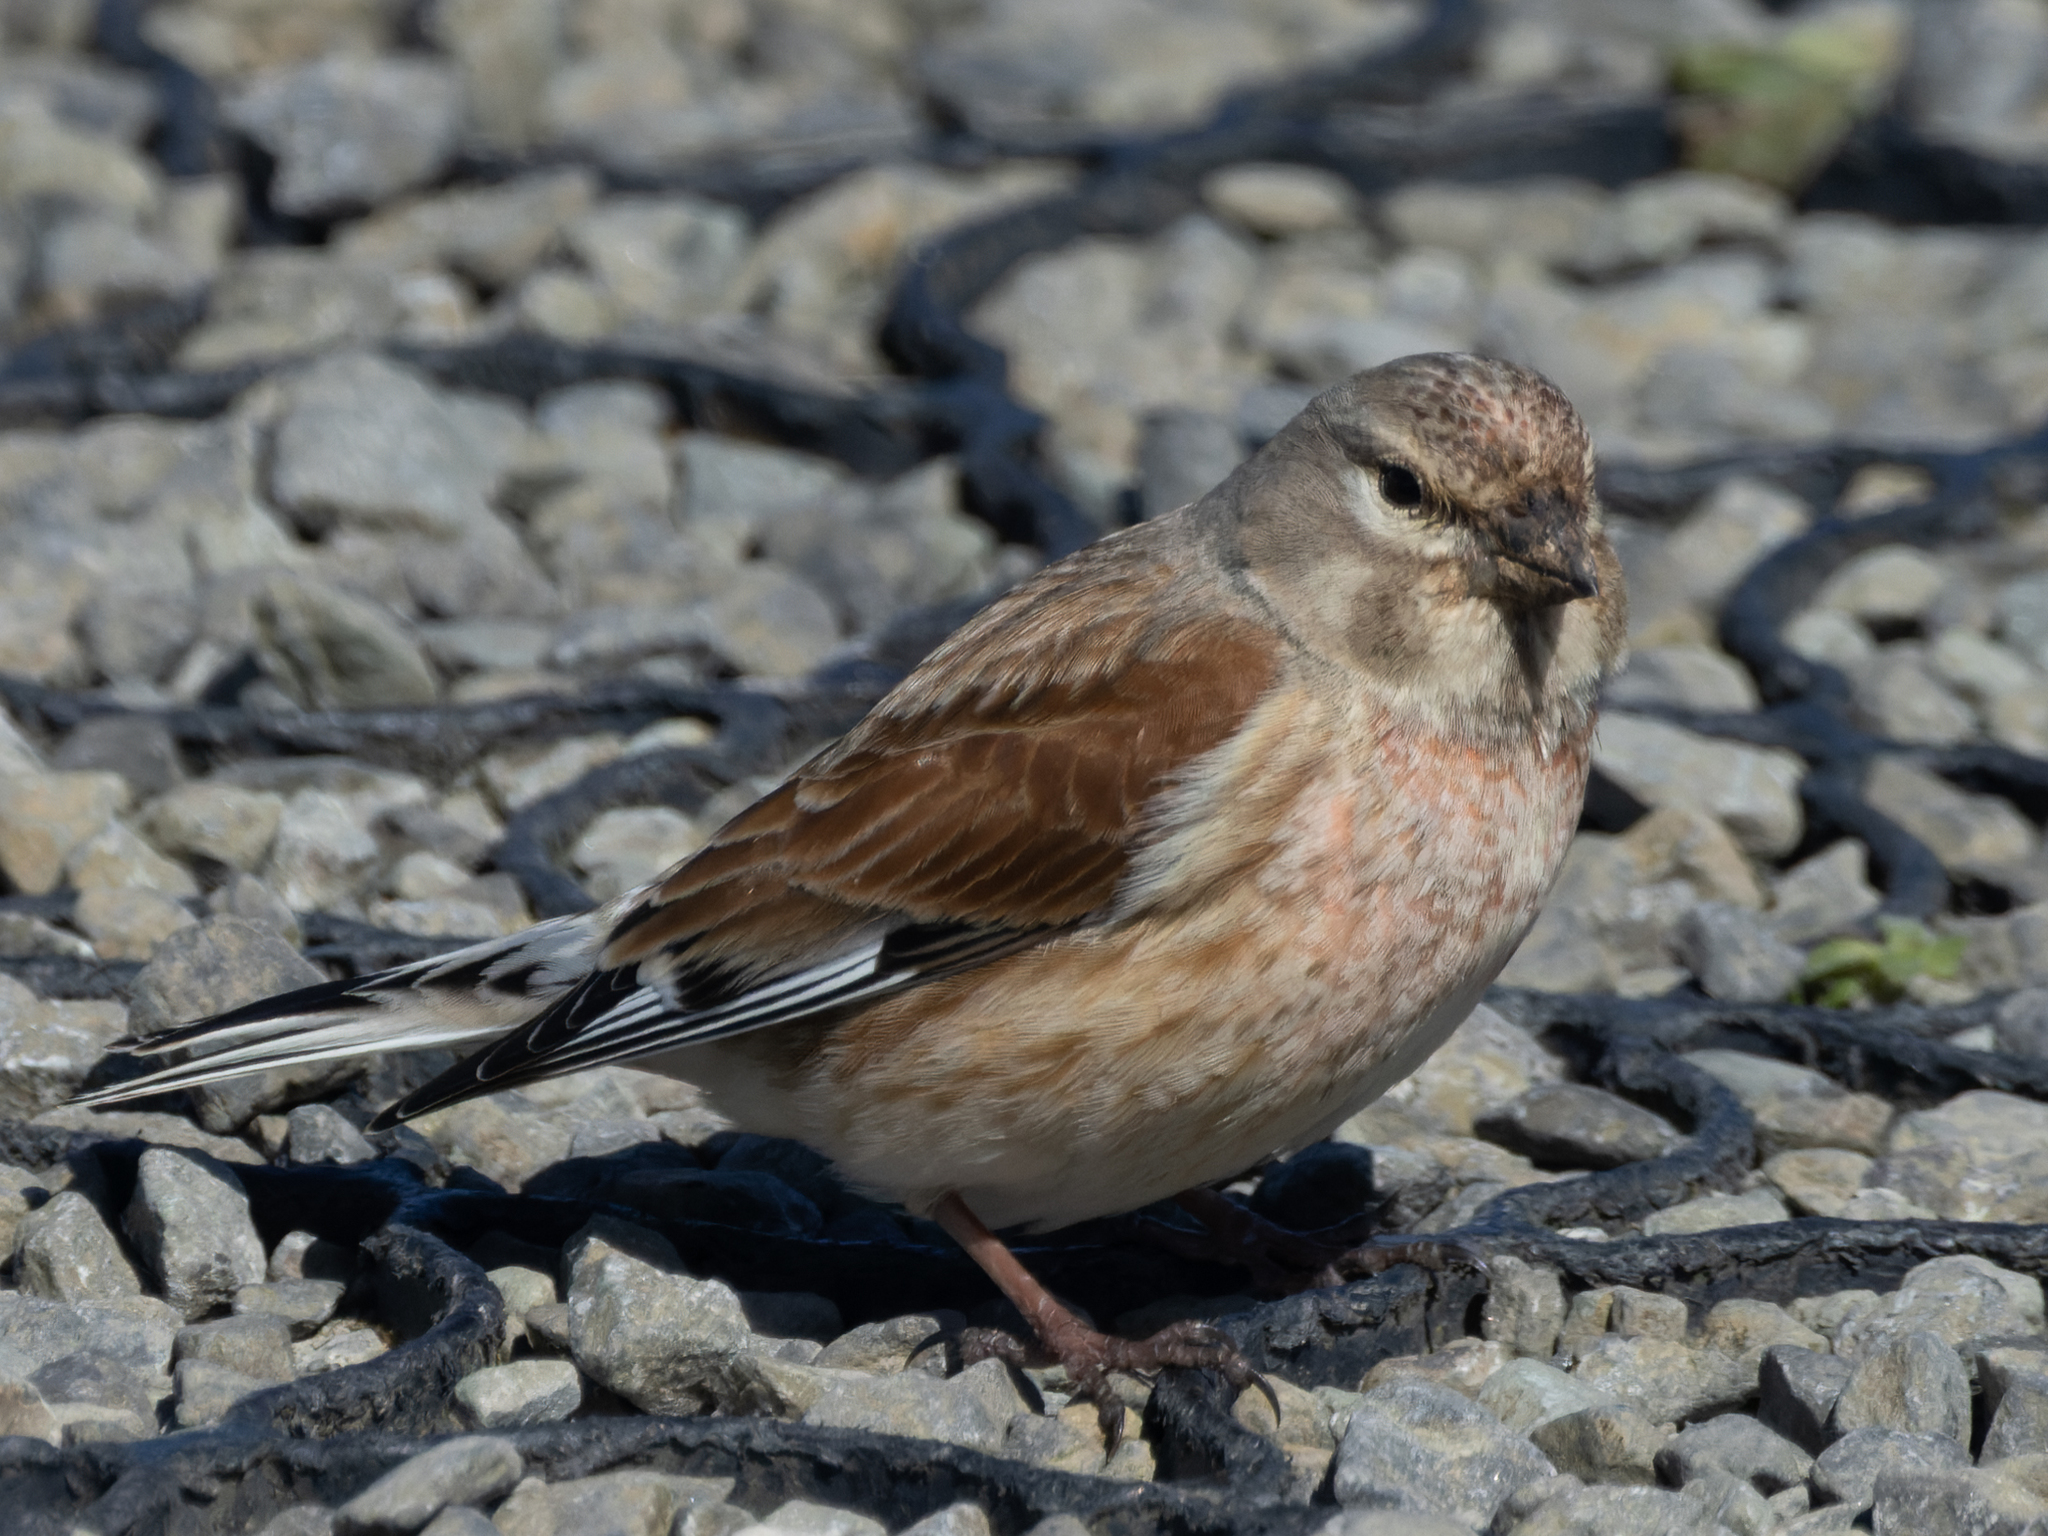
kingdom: Animalia
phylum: Chordata
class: Aves
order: Passeriformes
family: Fringillidae
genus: Linaria
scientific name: Linaria cannabina
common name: Common linnet
